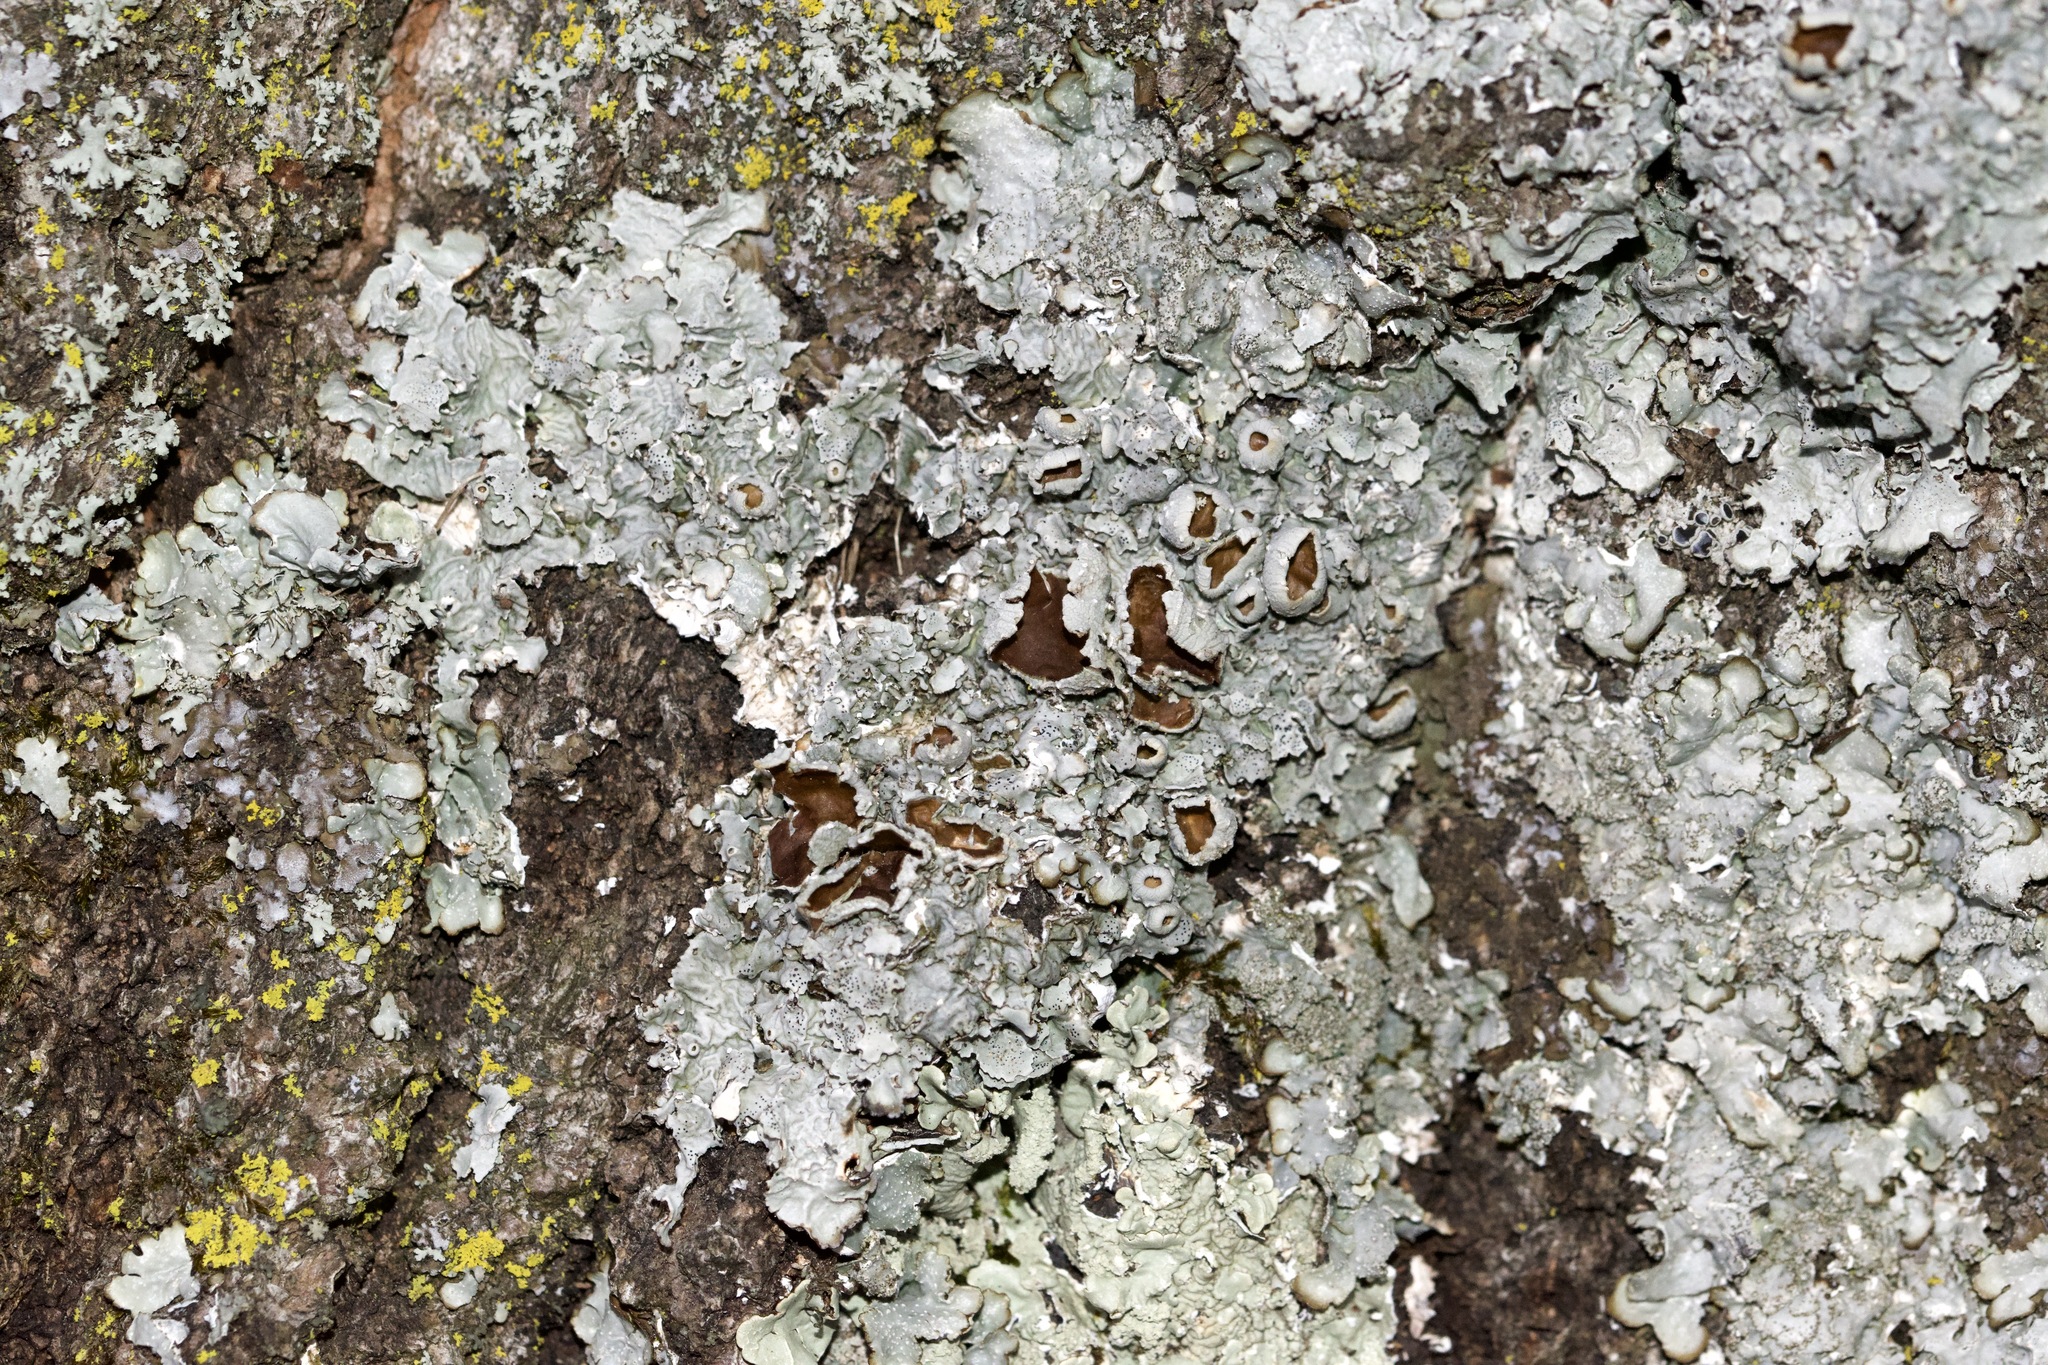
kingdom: Fungi
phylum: Ascomycota
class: Lecanoromycetes
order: Lecanorales
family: Parmeliaceae
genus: Punctelia
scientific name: Punctelia bolliana
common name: Eastern speckled shield lichen
